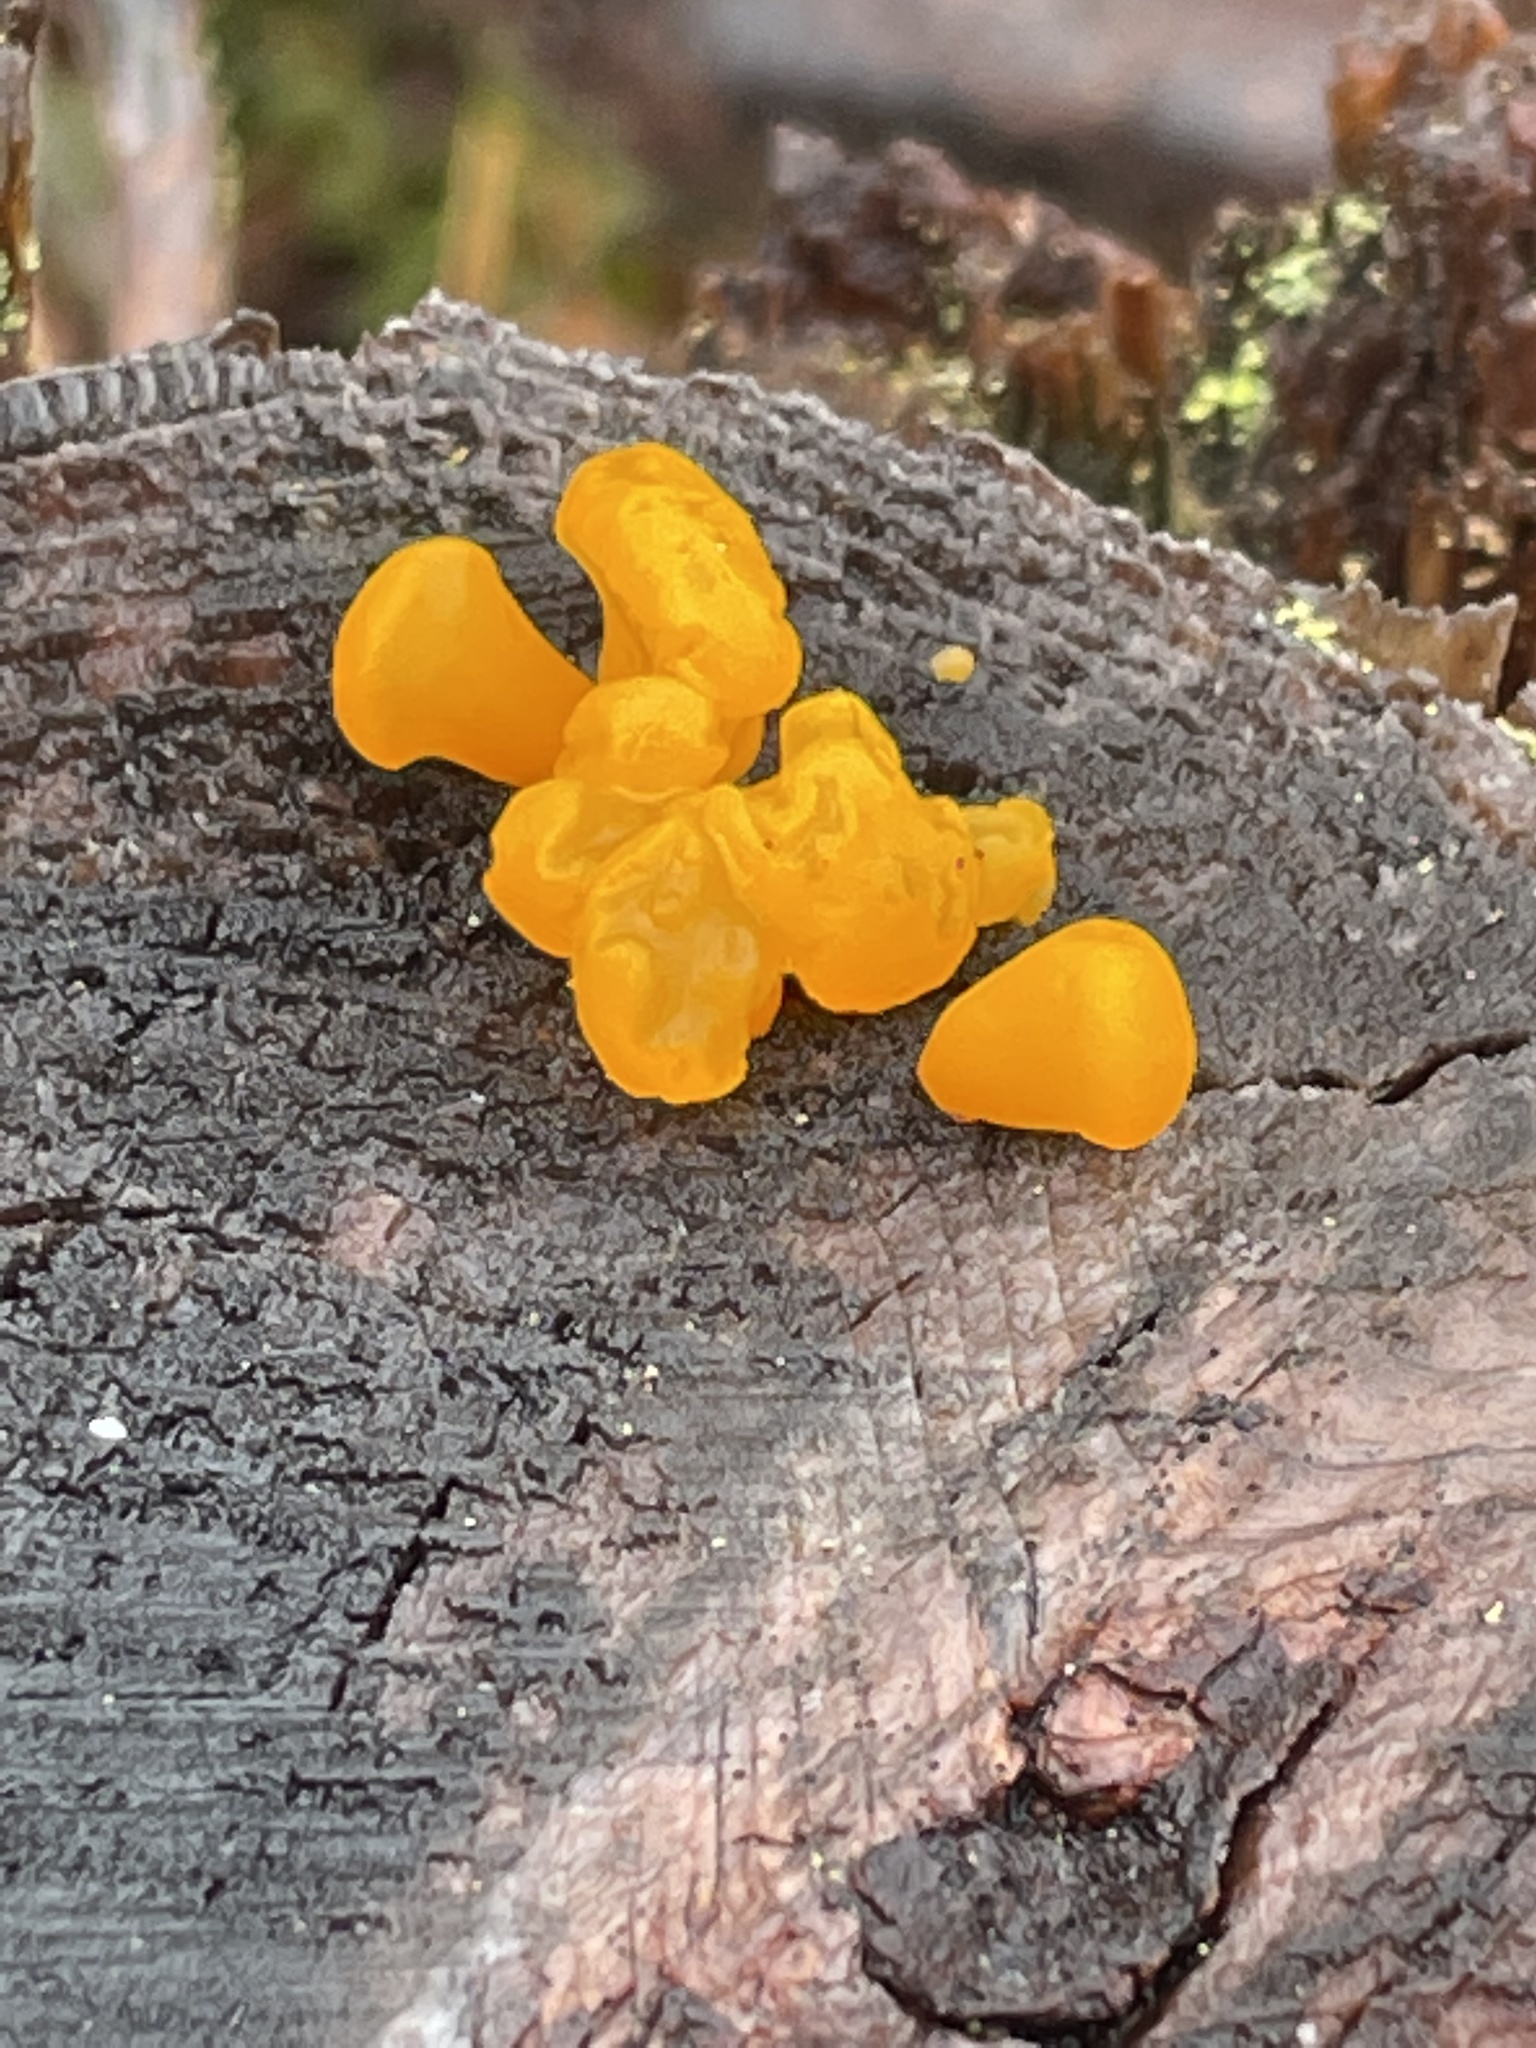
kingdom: Fungi
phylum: Basidiomycota
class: Dacrymycetes
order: Dacrymycetales
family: Dacrymycetaceae
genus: Dacrymyces
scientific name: Dacrymyces chrysospermus
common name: Orange jelly spot
